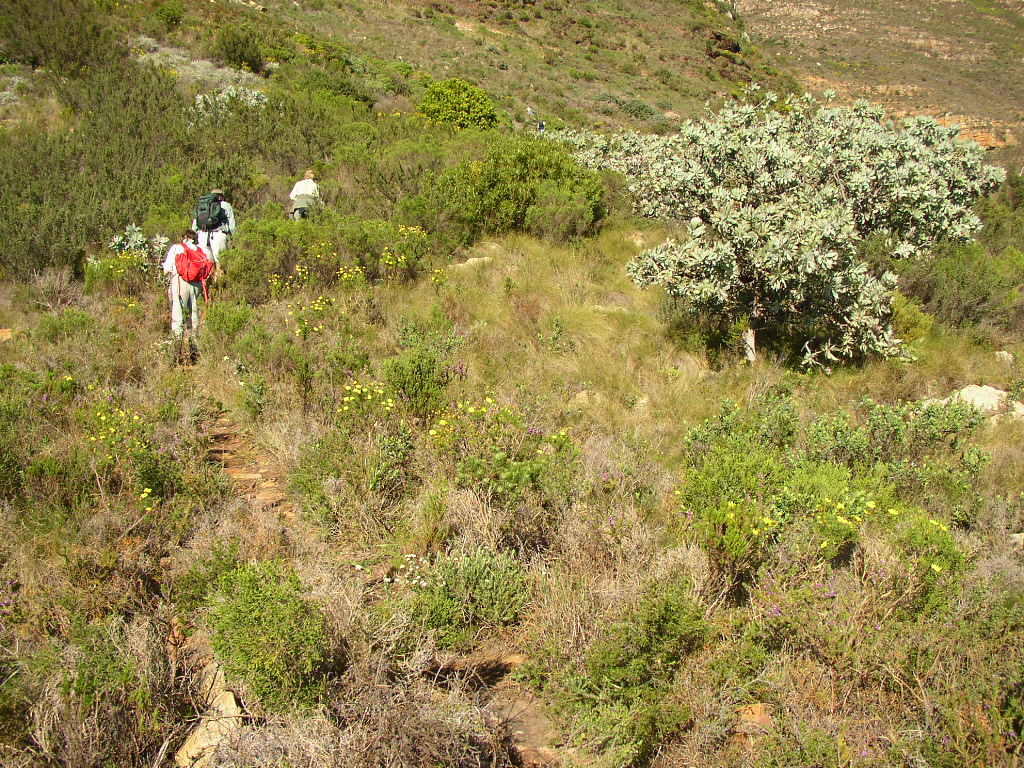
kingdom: Plantae
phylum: Tracheophyta
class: Magnoliopsida
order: Proteales
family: Proteaceae
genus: Protea
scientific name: Protea nitida
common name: Tree protea
